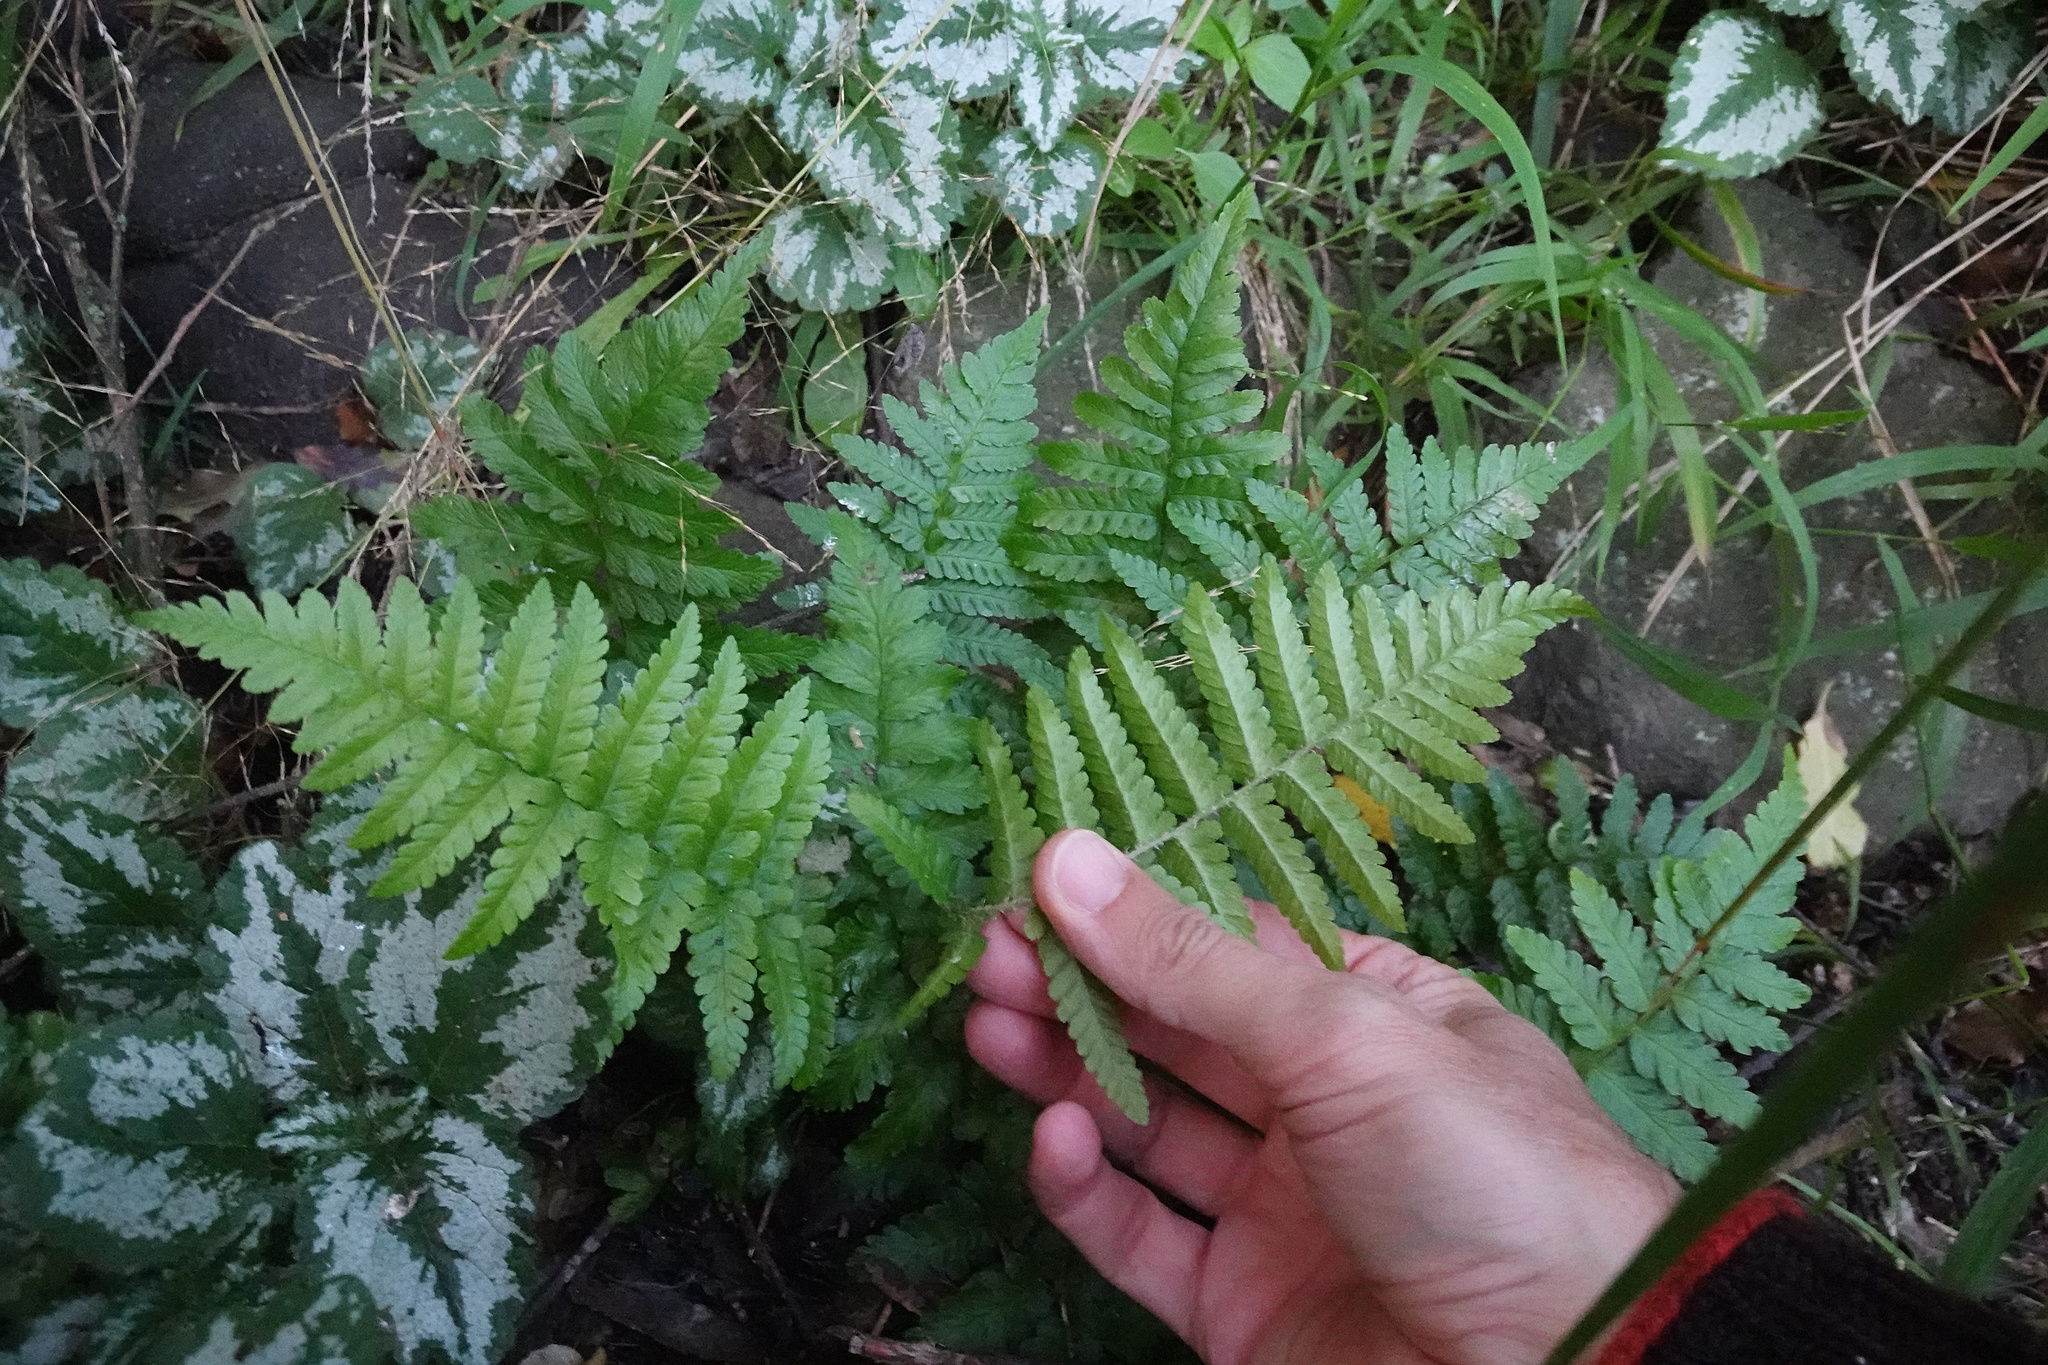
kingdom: Plantae
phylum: Tracheophyta
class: Polypodiopsida
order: Polypodiales
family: Dryopteridaceae
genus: Dryopteris
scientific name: Dryopteris filix-mas
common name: Male fern
